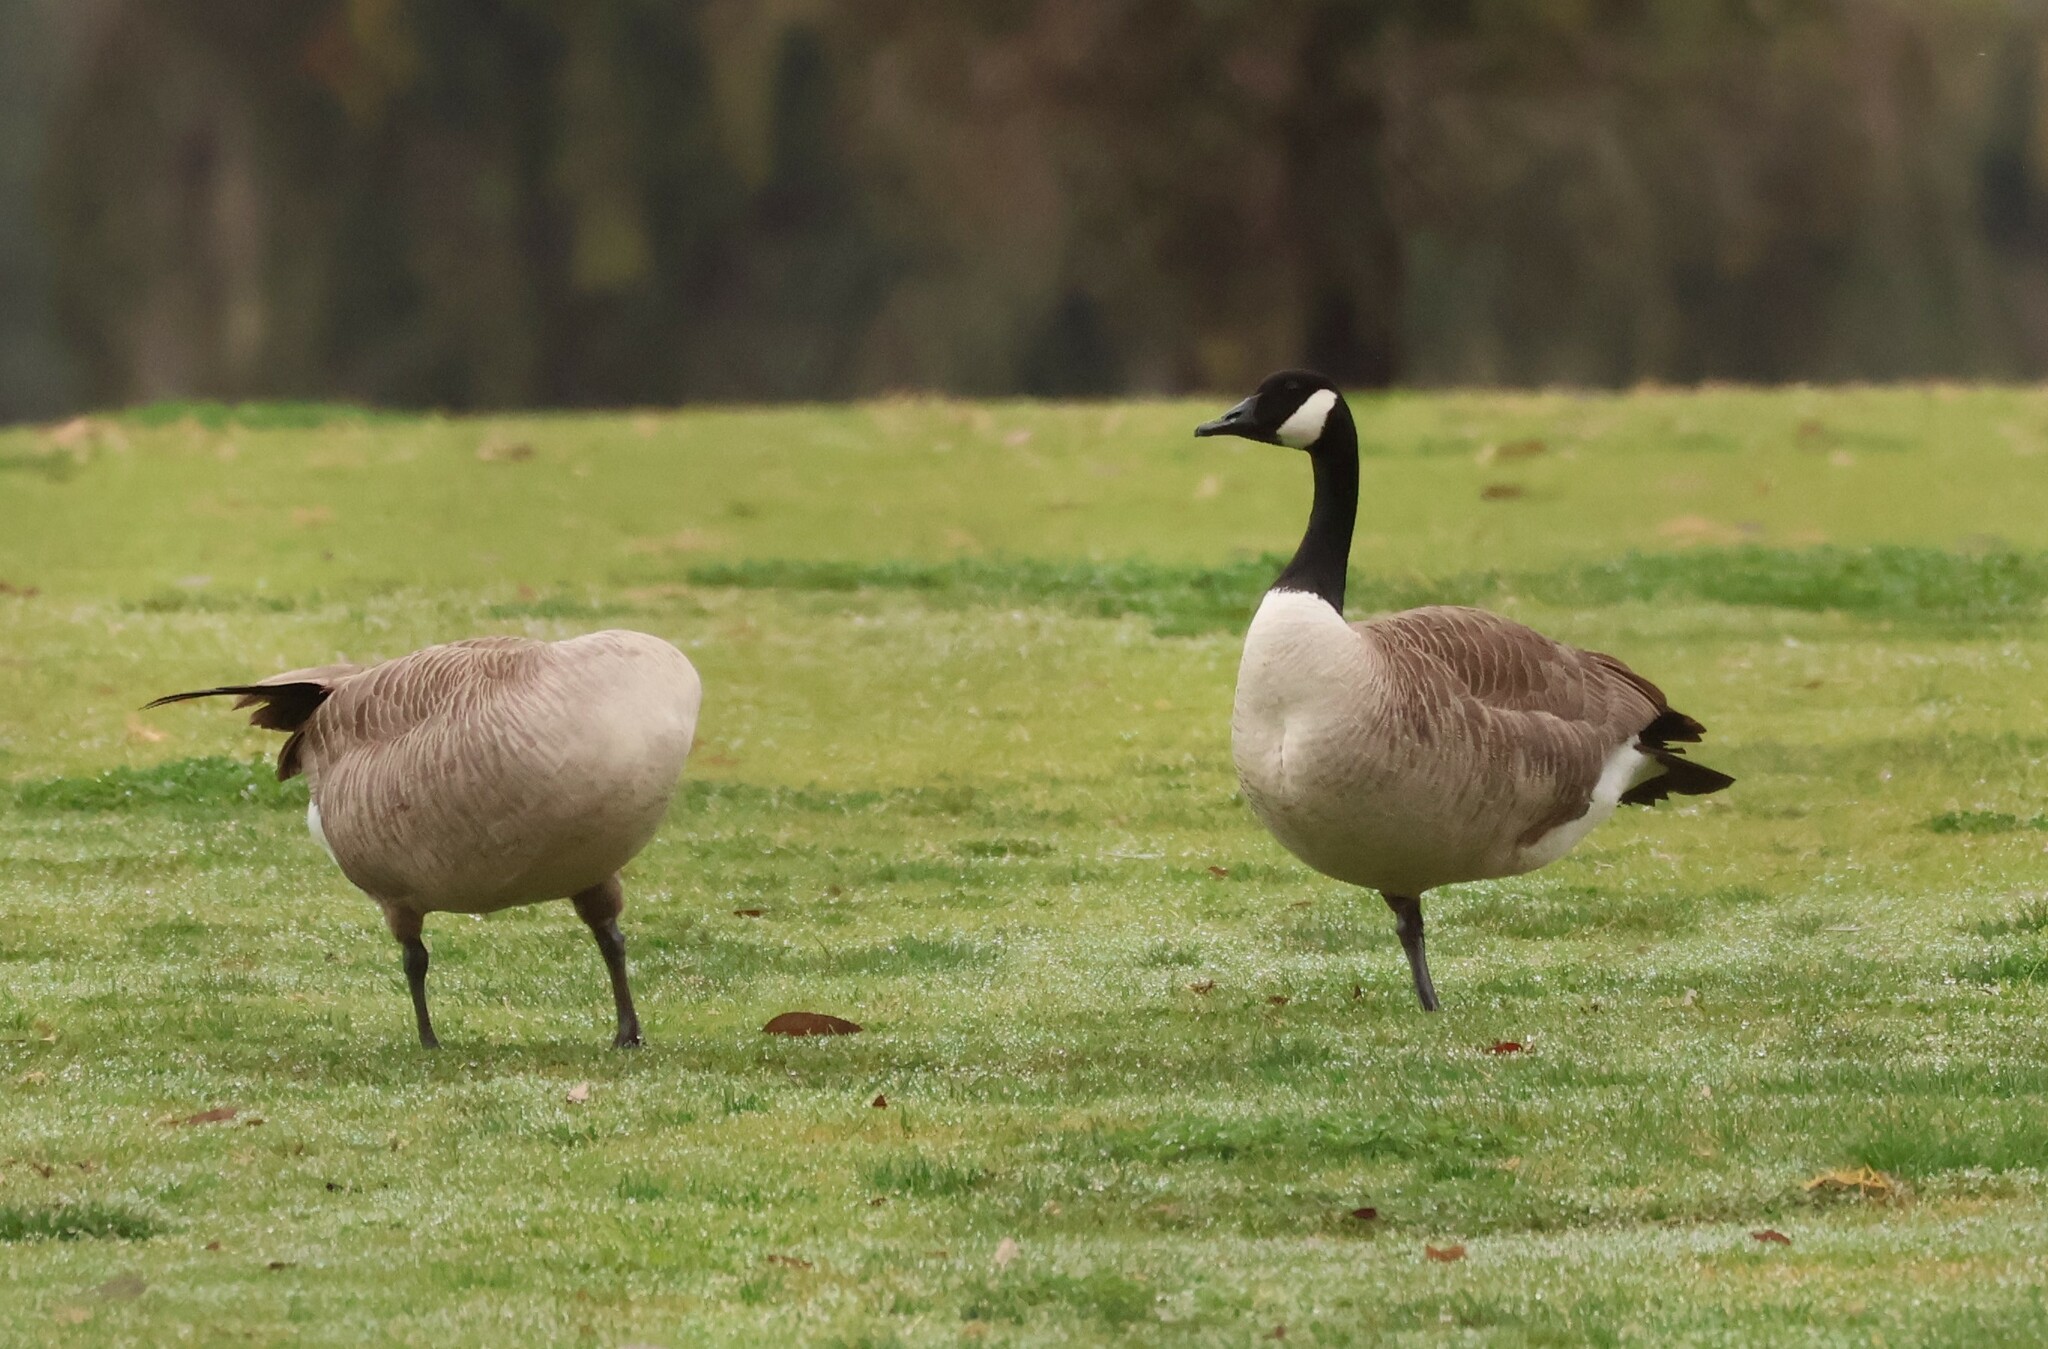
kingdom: Animalia
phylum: Chordata
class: Aves
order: Anseriformes
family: Anatidae
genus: Branta
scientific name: Branta canadensis
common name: Canada goose
